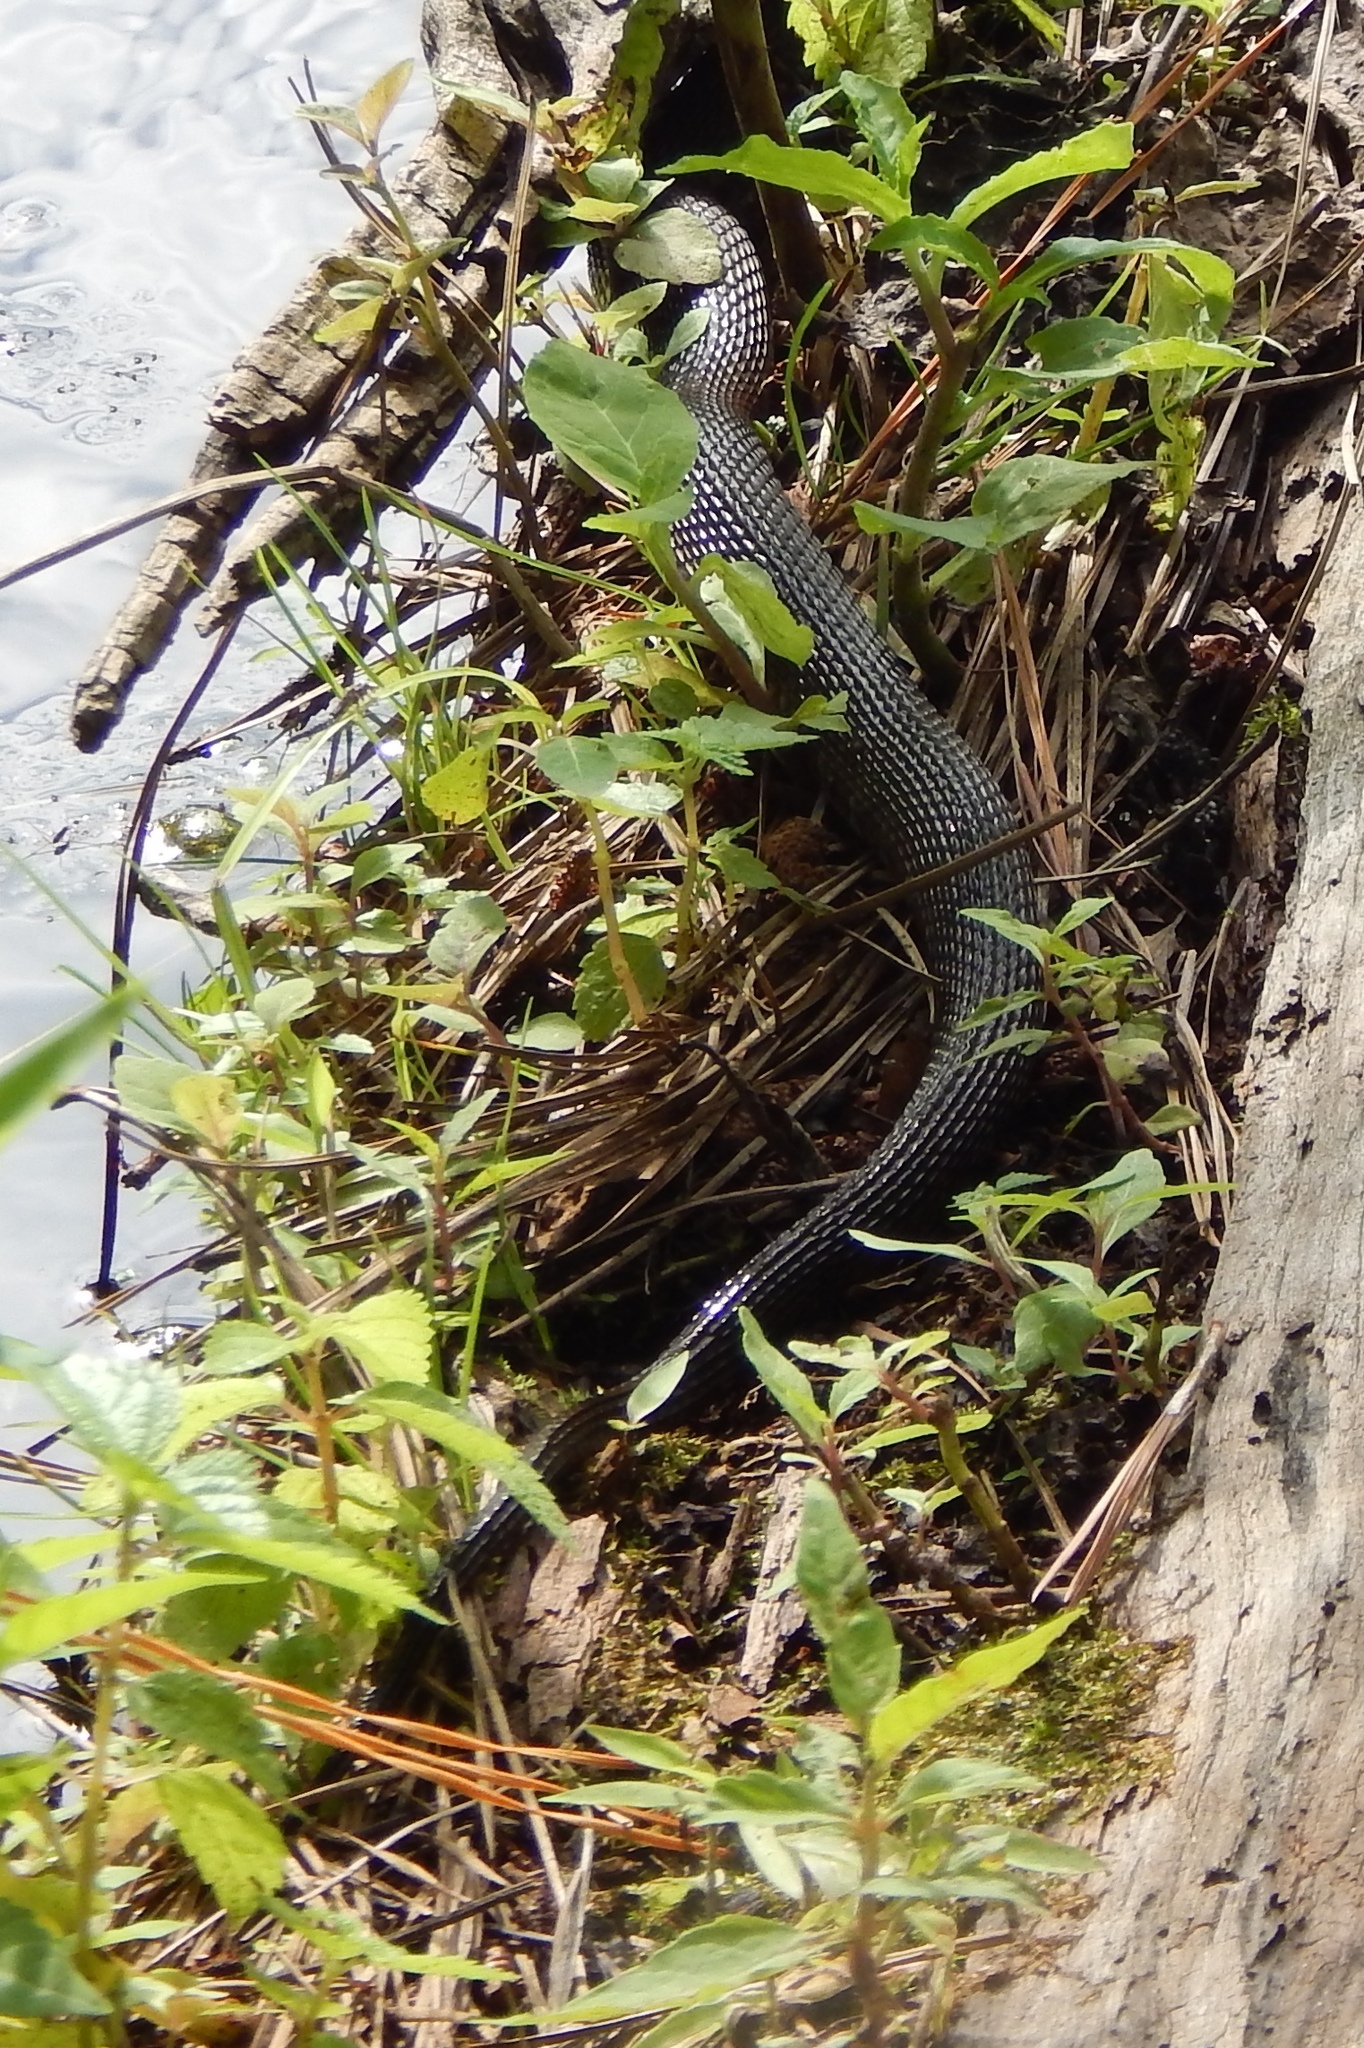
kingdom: Animalia
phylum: Chordata
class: Squamata
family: Colubridae
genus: Nerodia
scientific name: Nerodia sipedon
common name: Northern water snake
